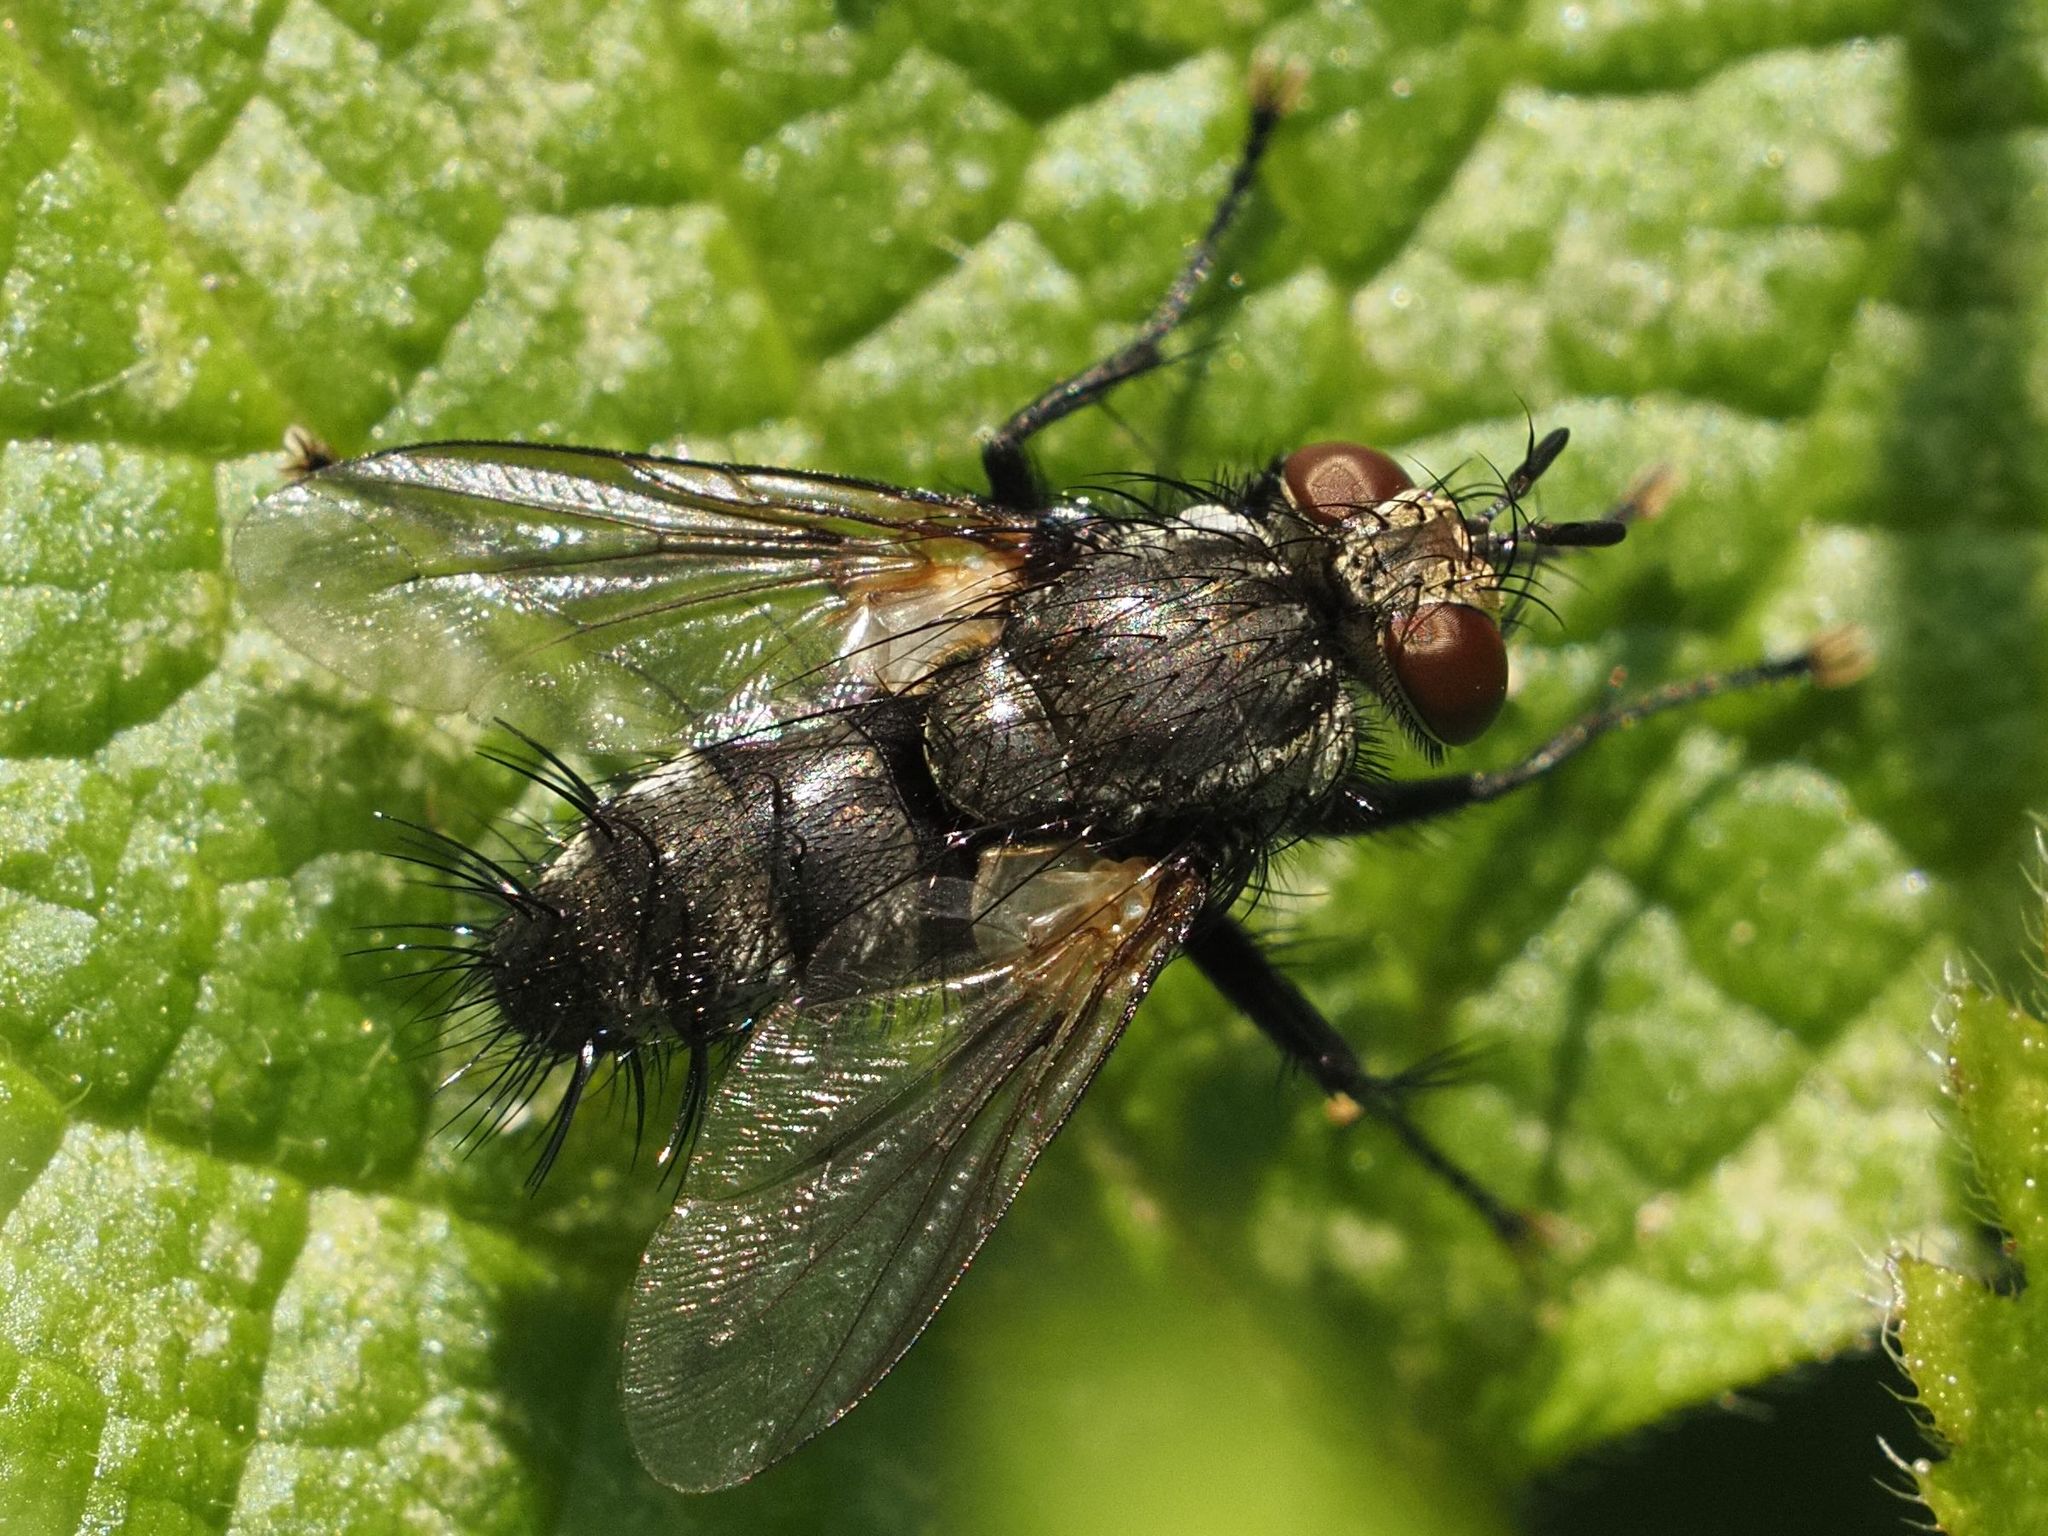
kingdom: Animalia
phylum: Arthropoda
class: Insecta
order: Diptera
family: Tachinidae
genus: Voria
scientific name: Voria ruralis
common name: Parasitic fly
